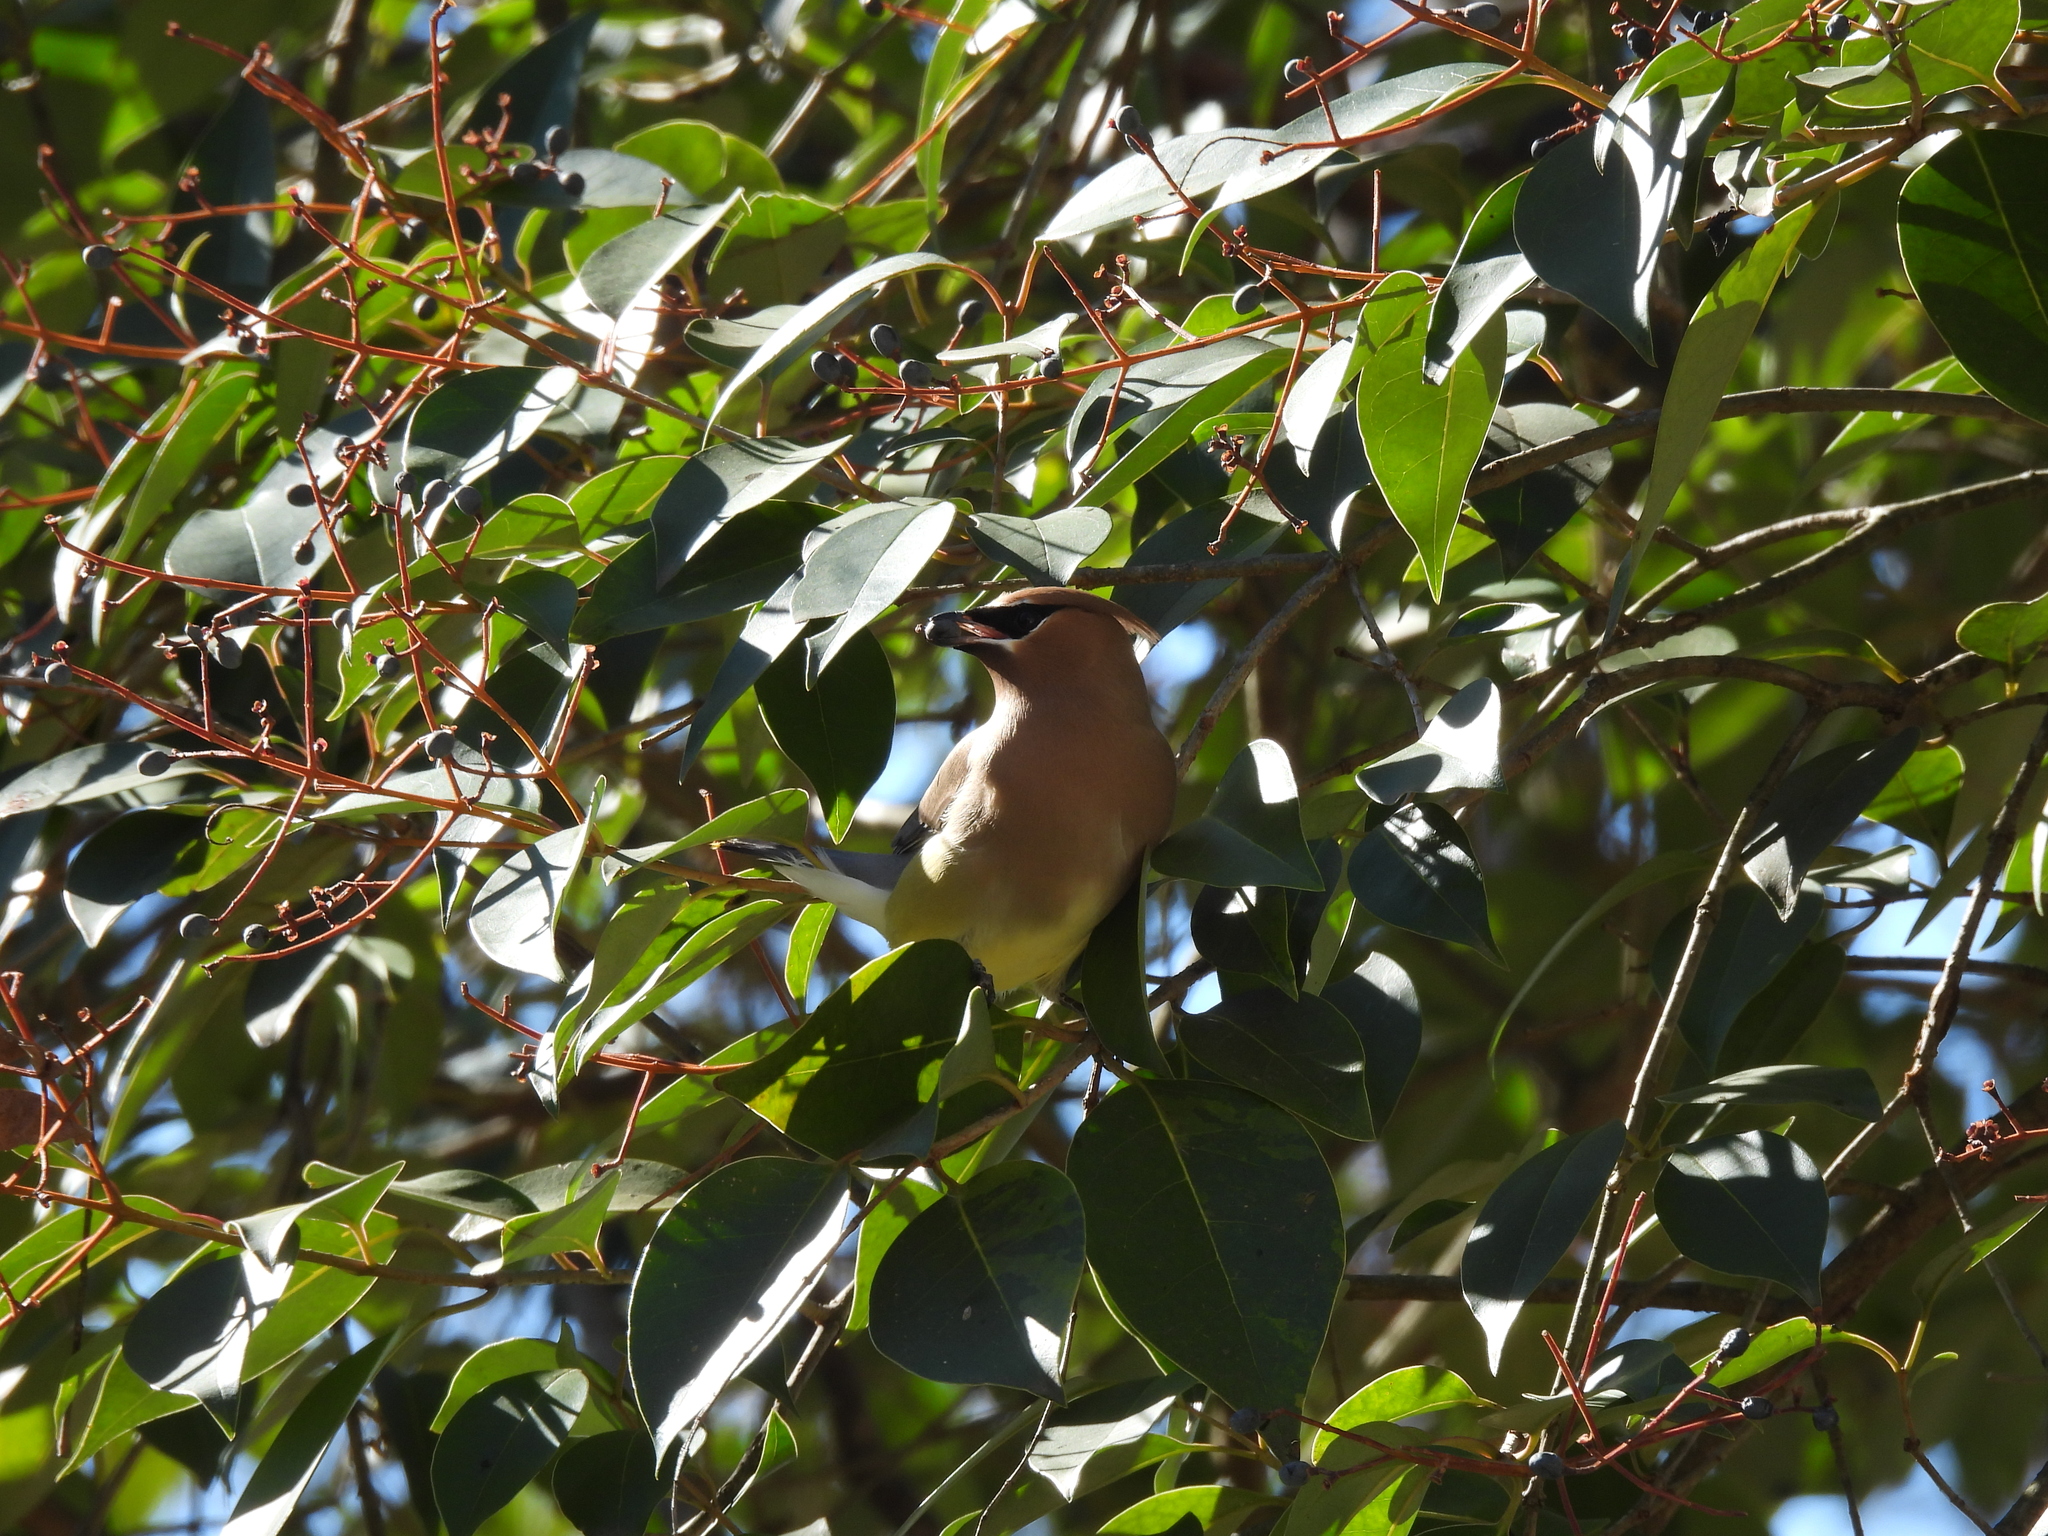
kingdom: Animalia
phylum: Chordata
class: Aves
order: Passeriformes
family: Bombycillidae
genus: Bombycilla
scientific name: Bombycilla cedrorum
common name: Cedar waxwing
